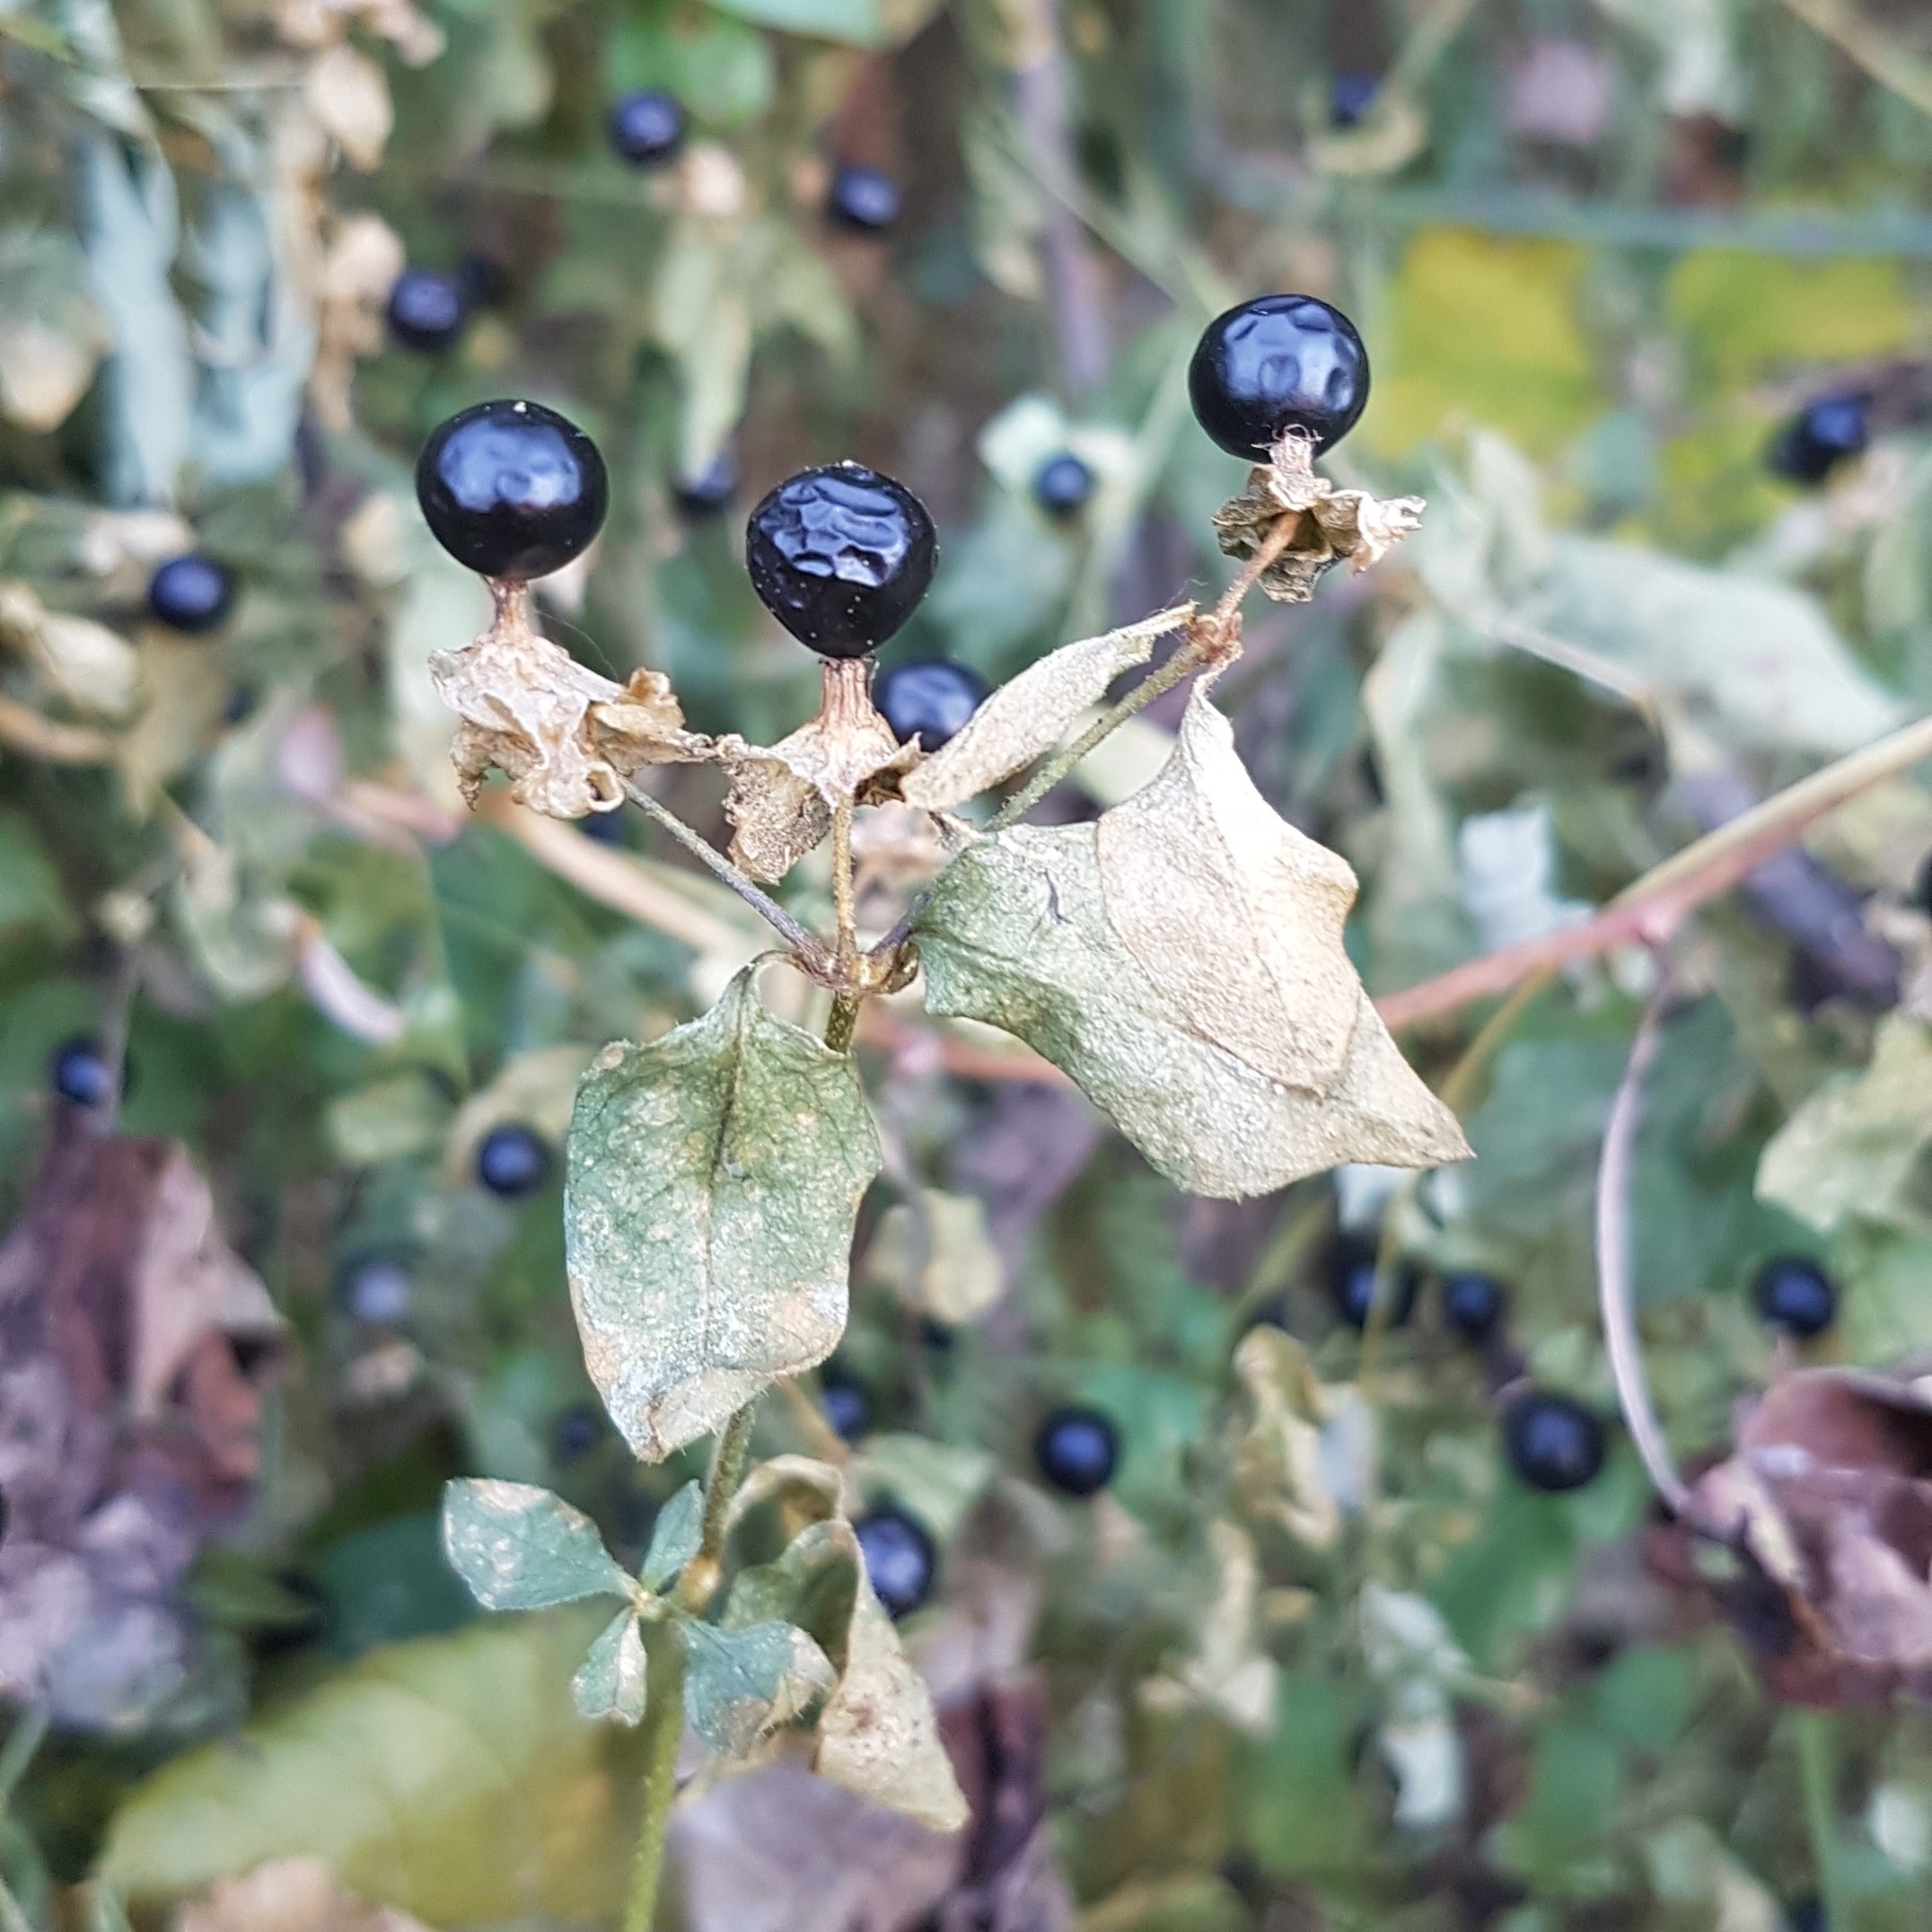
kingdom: Plantae
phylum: Tracheophyta
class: Magnoliopsida
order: Caryophyllales
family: Caryophyllaceae
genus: Silene
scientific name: Silene baccifera
